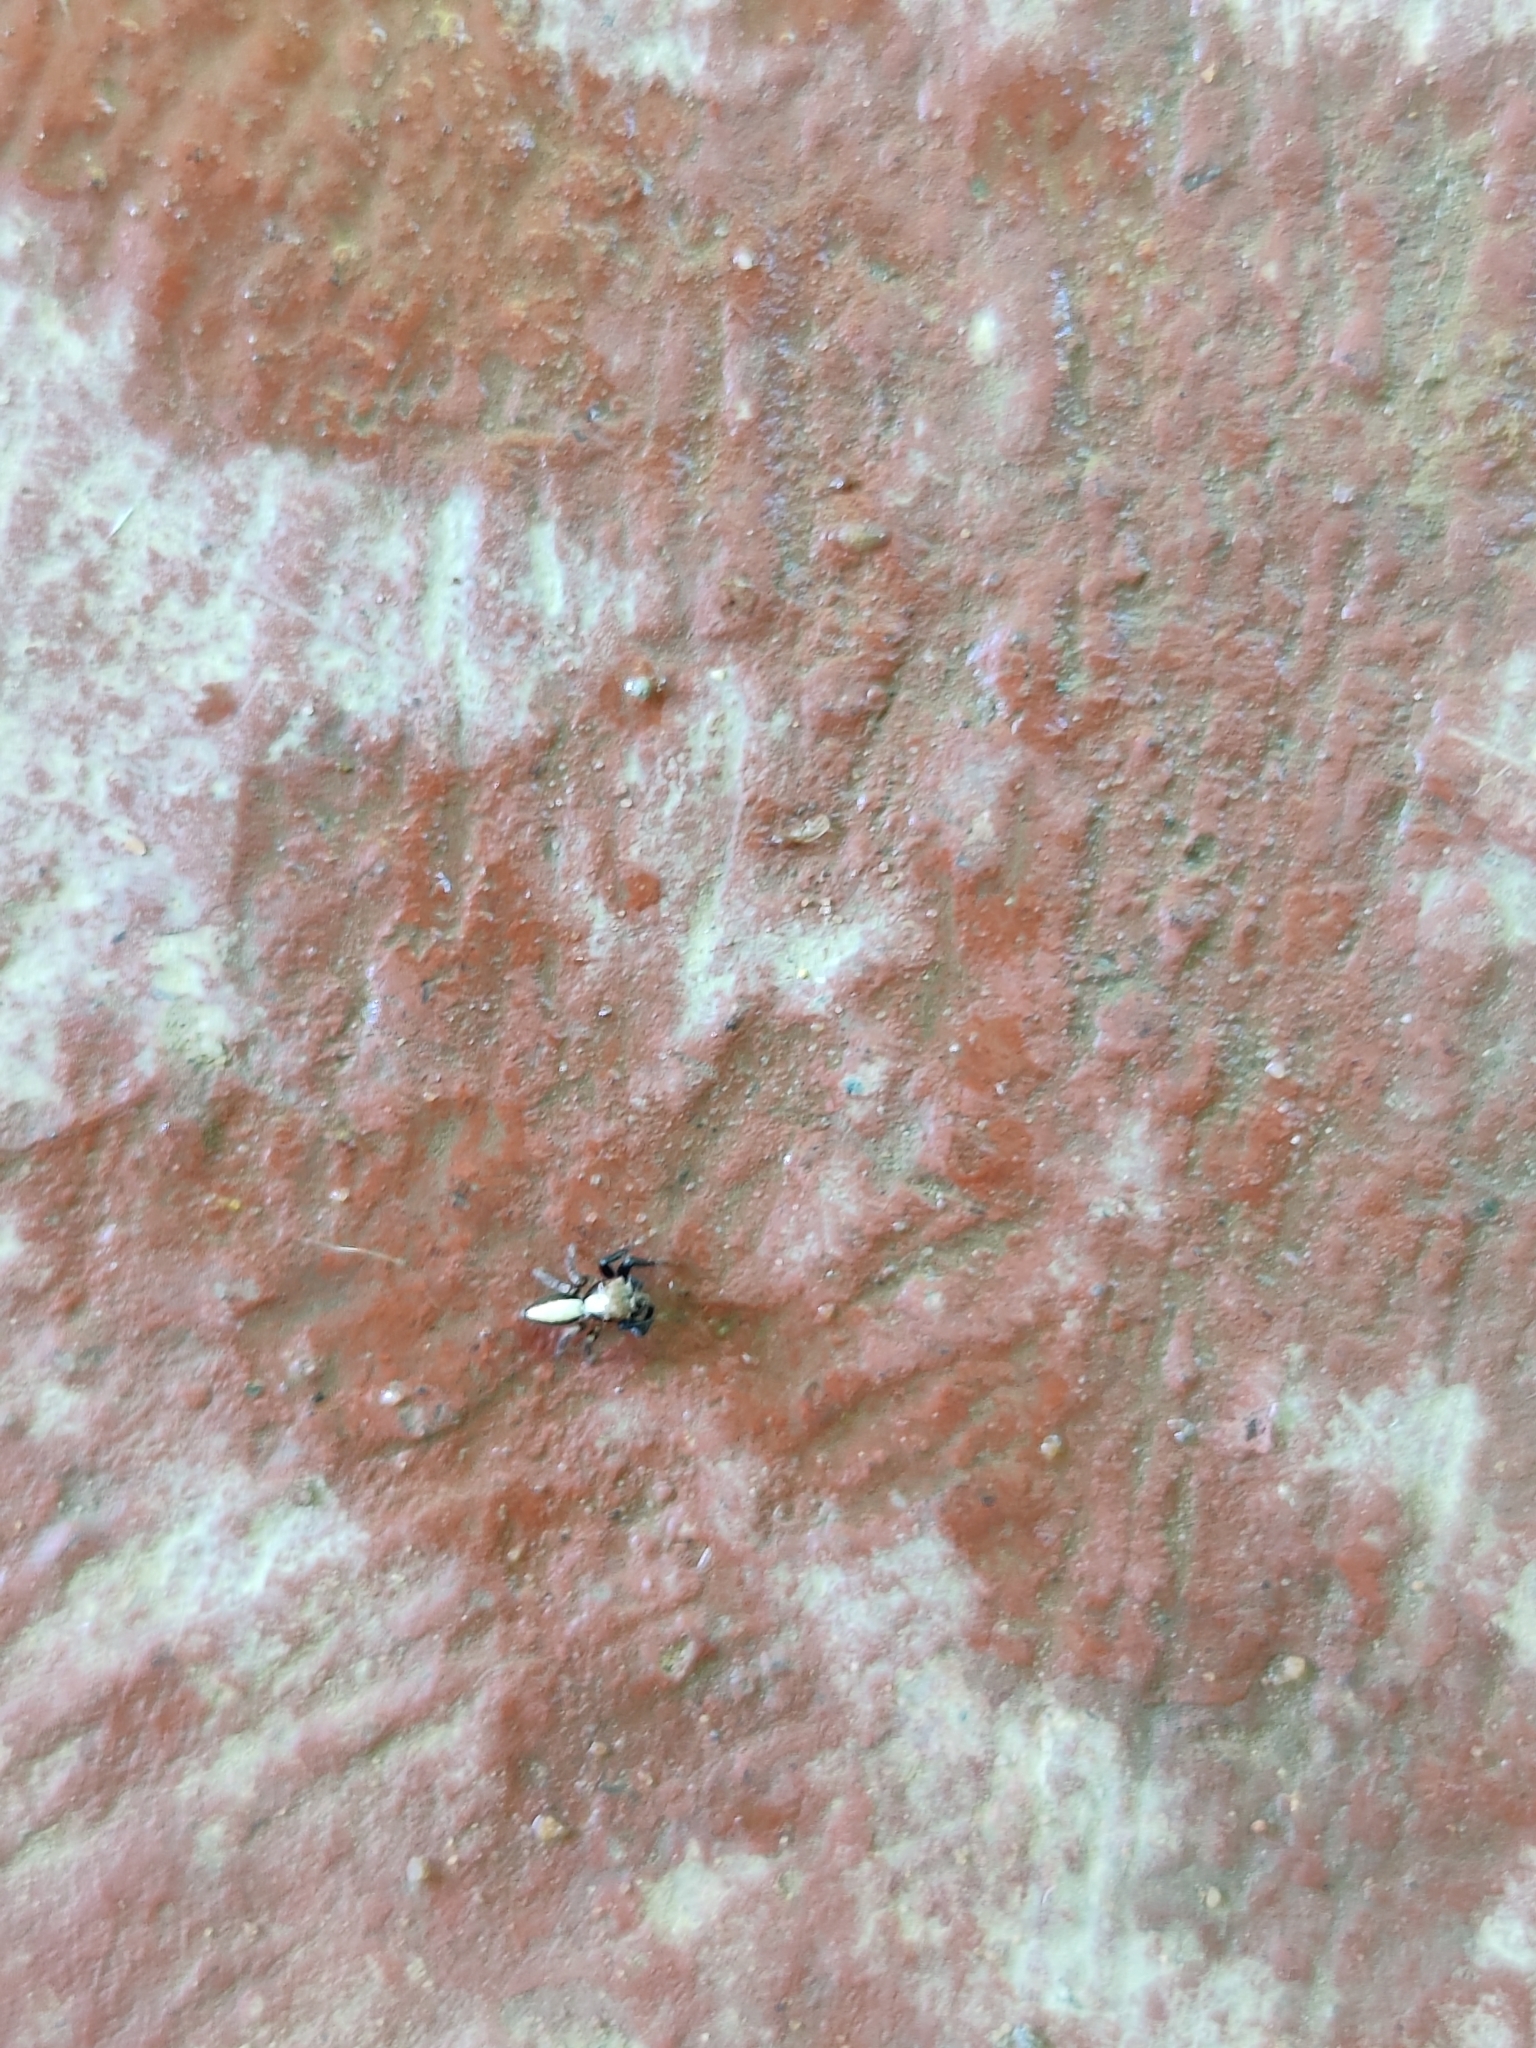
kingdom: Animalia
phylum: Arthropoda
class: Arachnida
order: Araneae
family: Salticidae
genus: Thyene
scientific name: Thyene bivittata
